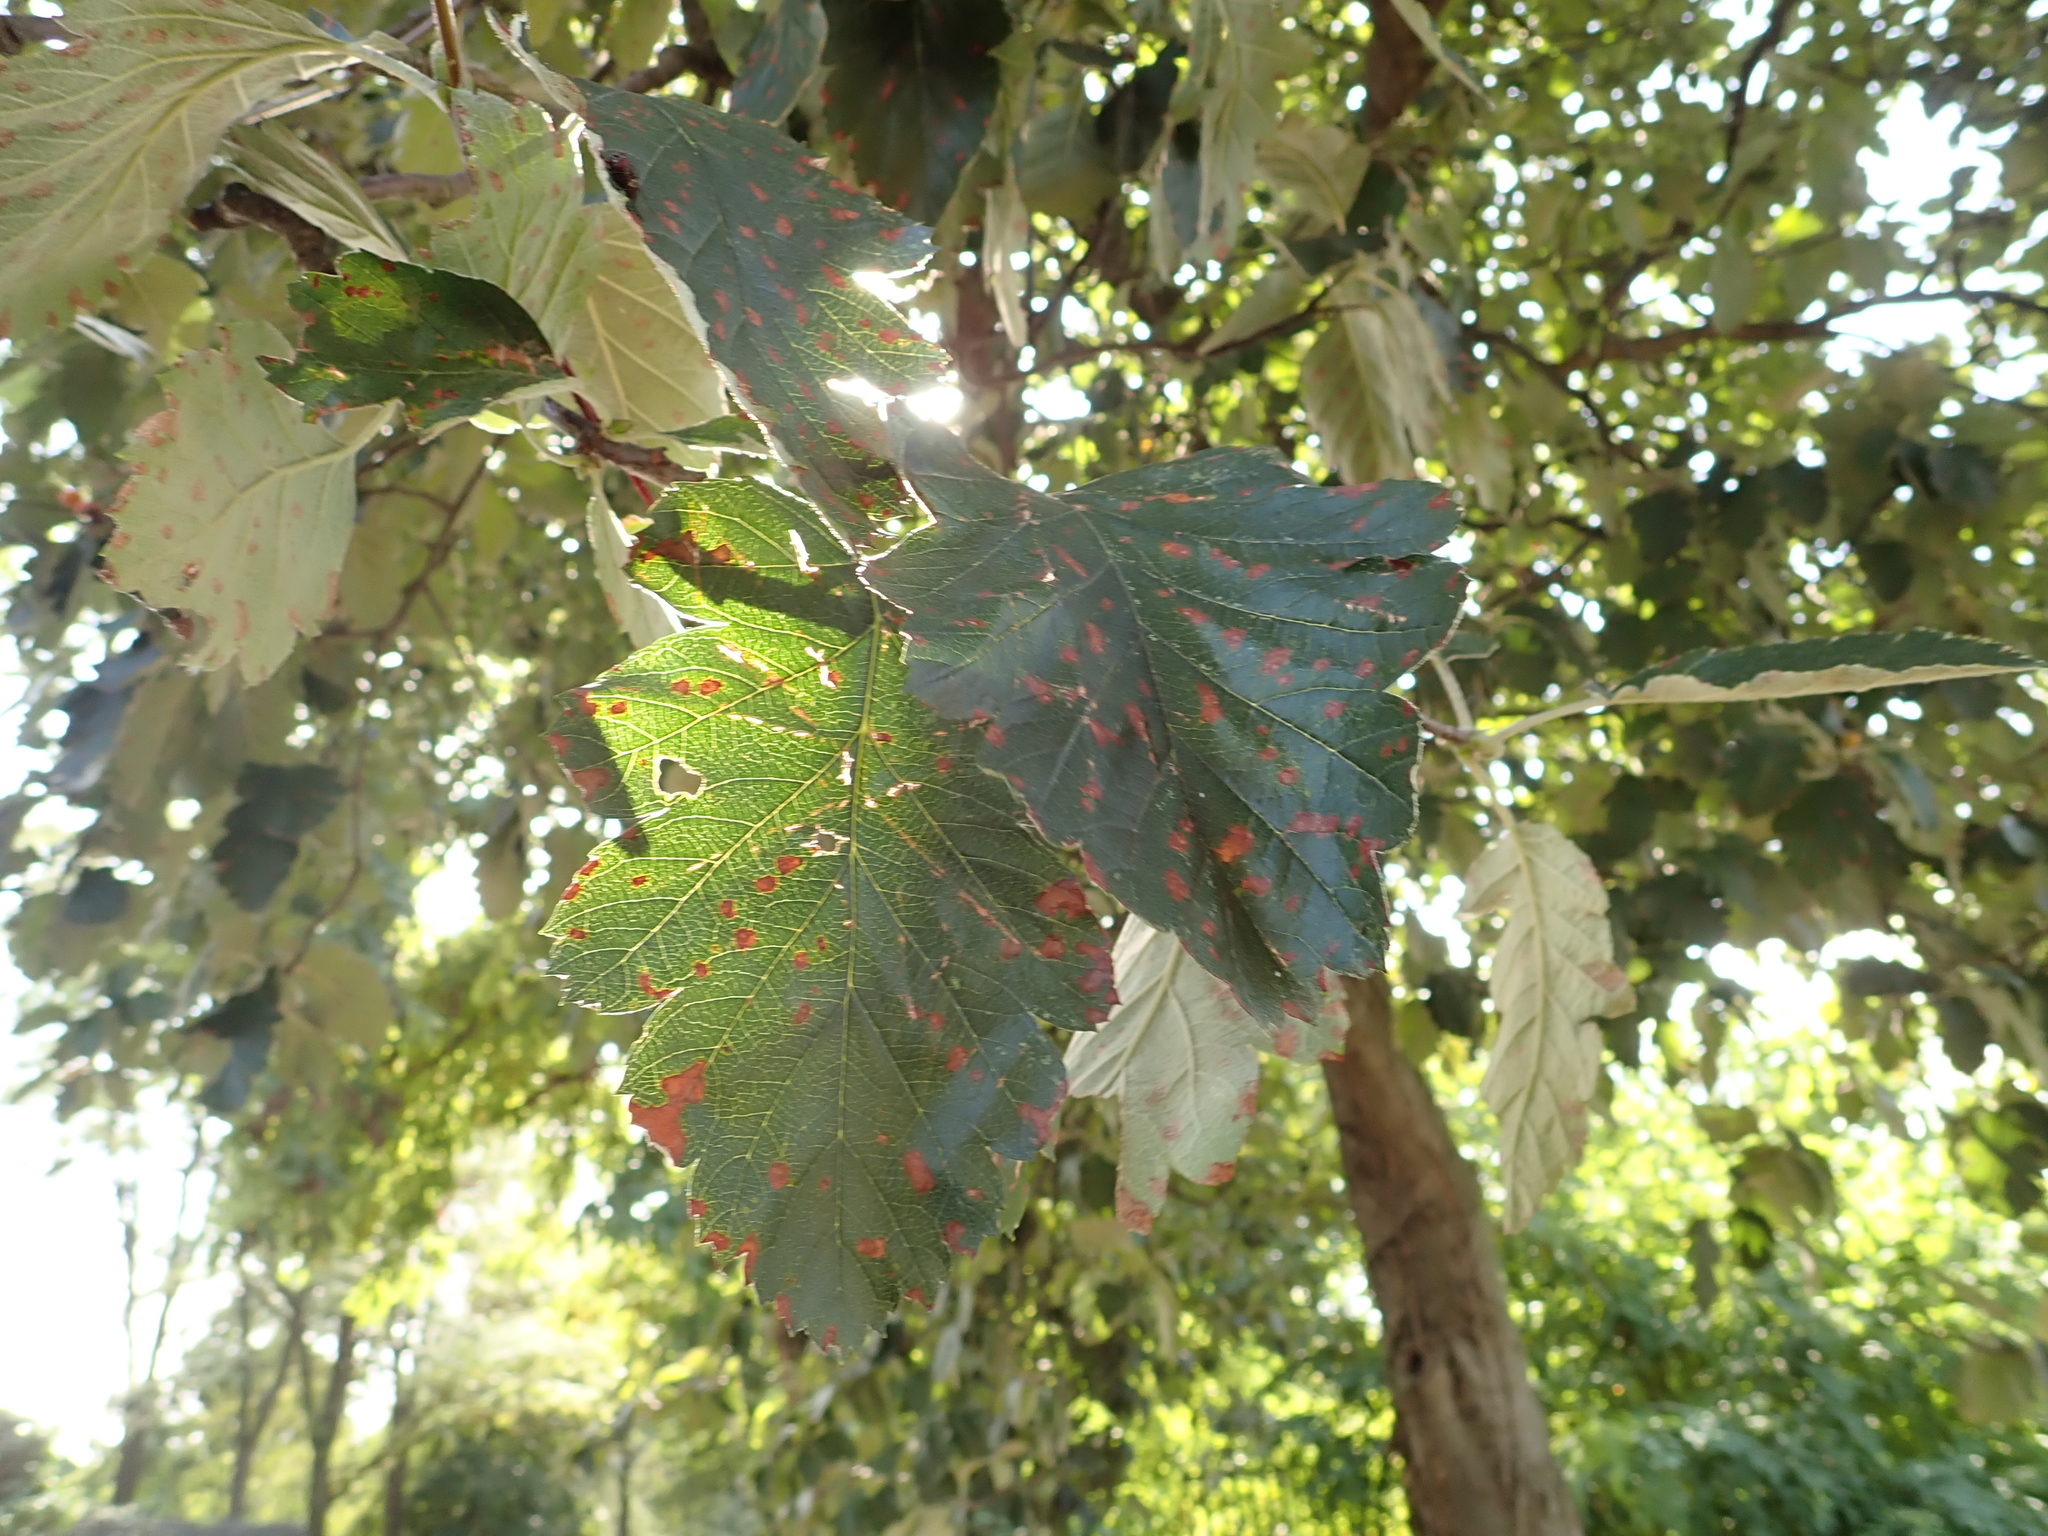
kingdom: Plantae
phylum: Tracheophyta
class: Magnoliopsida
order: Rosales
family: Rosaceae
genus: Scandosorbus
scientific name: Scandosorbus intermedia
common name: Swedish whitebeam
